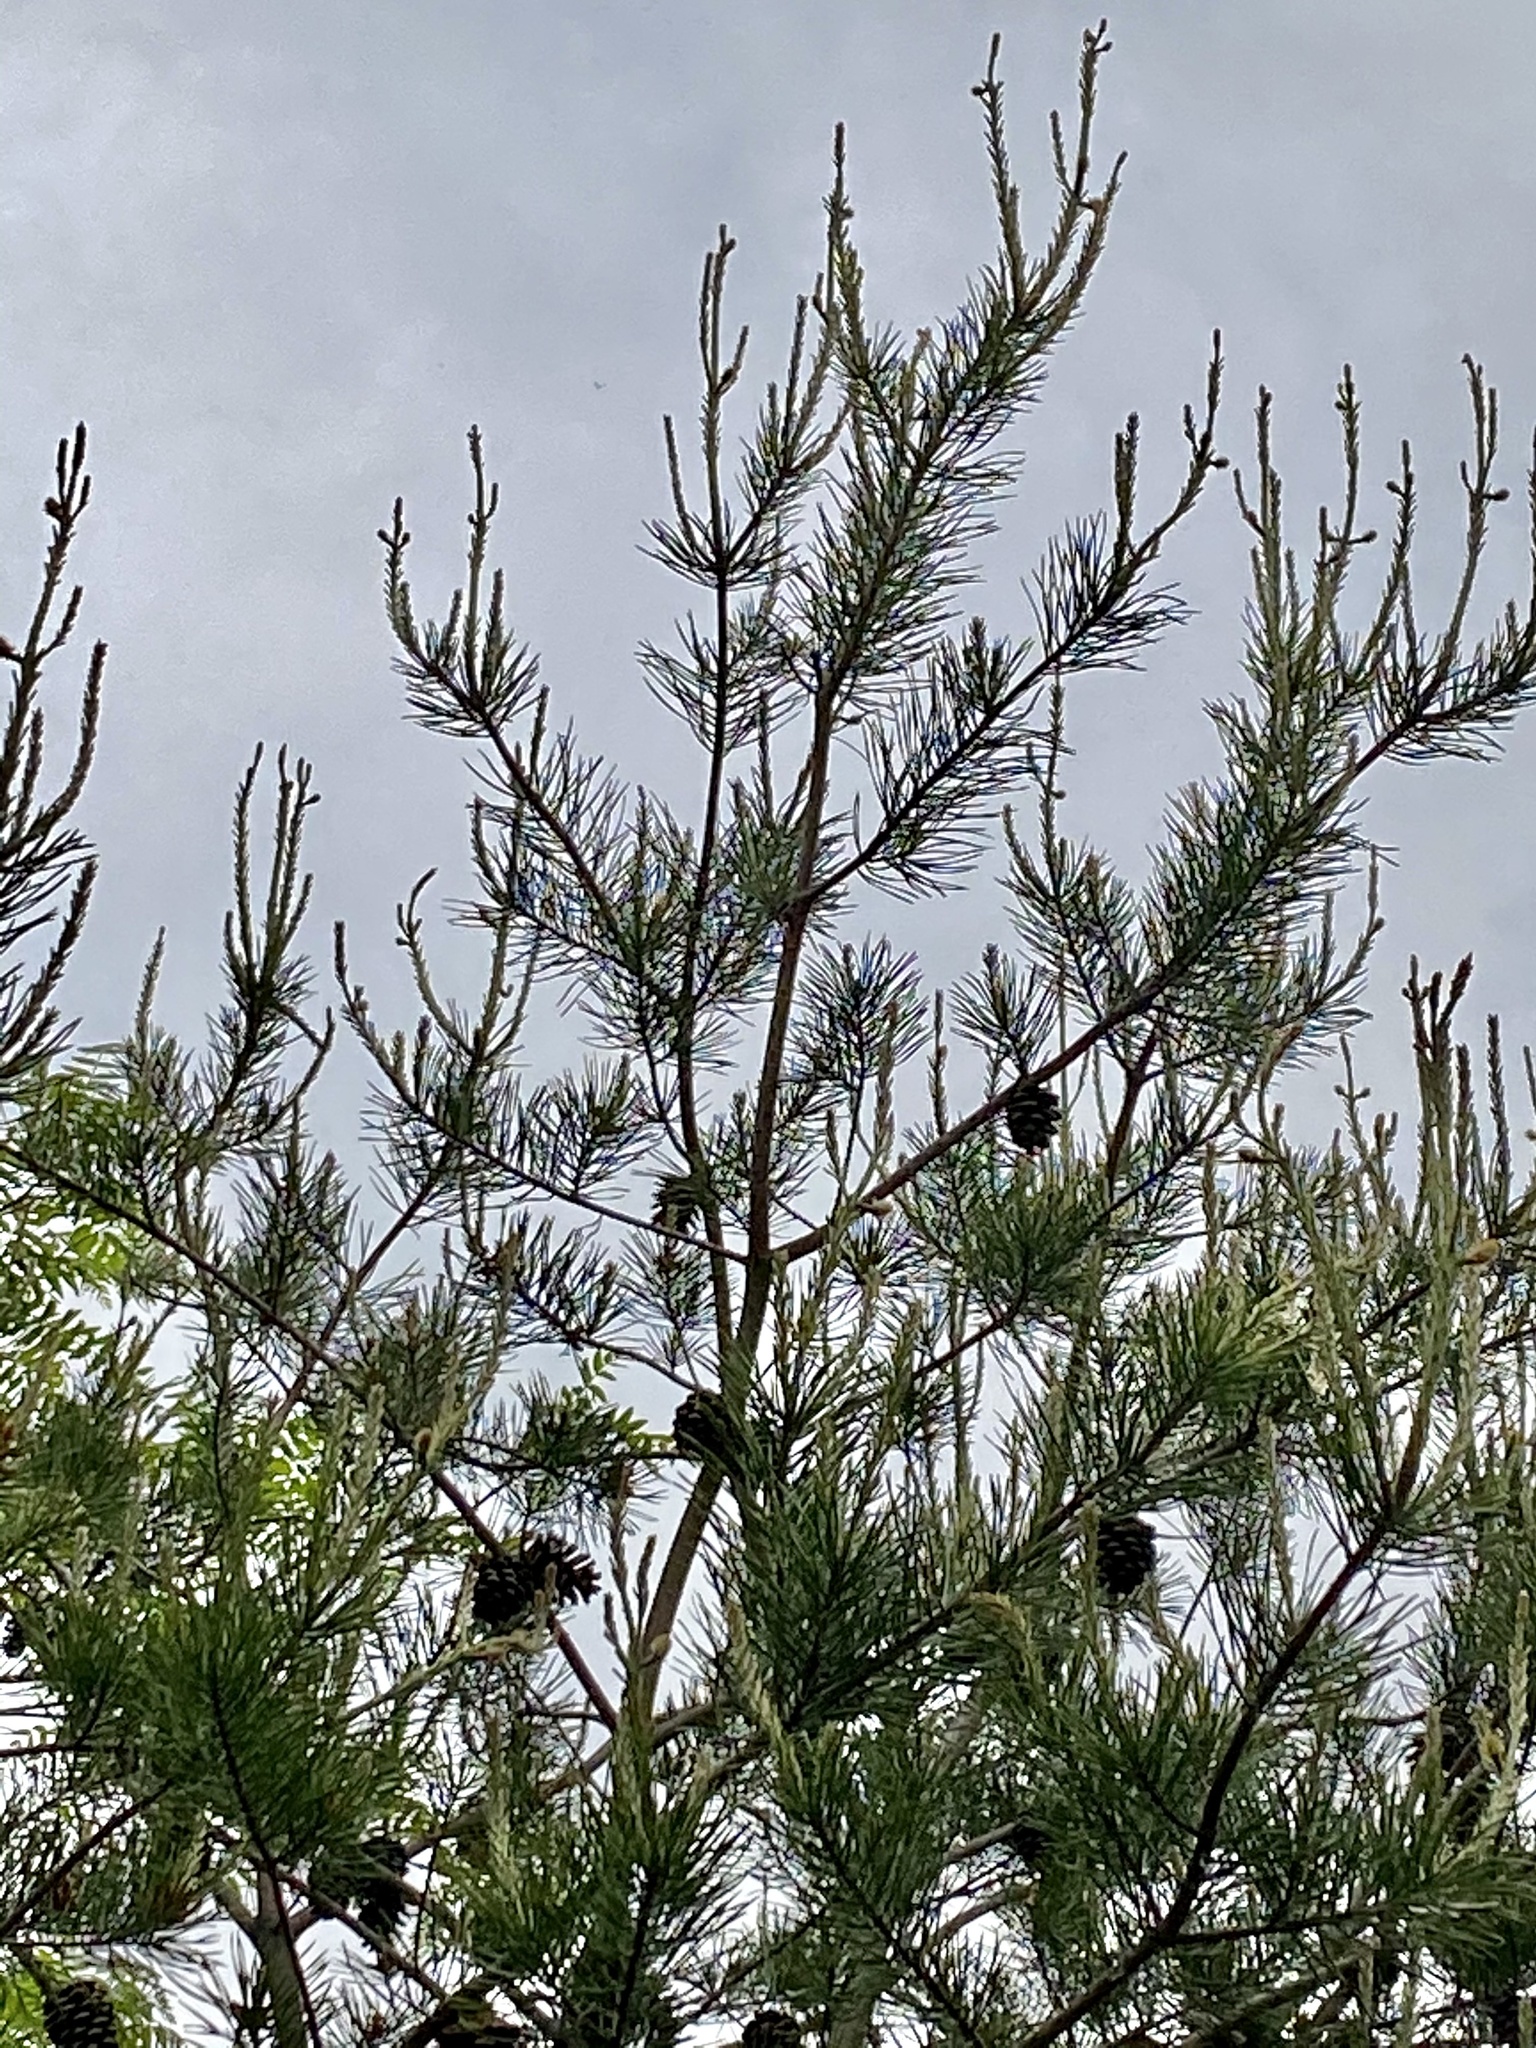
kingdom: Plantae
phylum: Tracheophyta
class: Pinopsida
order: Pinales
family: Pinaceae
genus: Pinus
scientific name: Pinus virginiana
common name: Scrub pine
